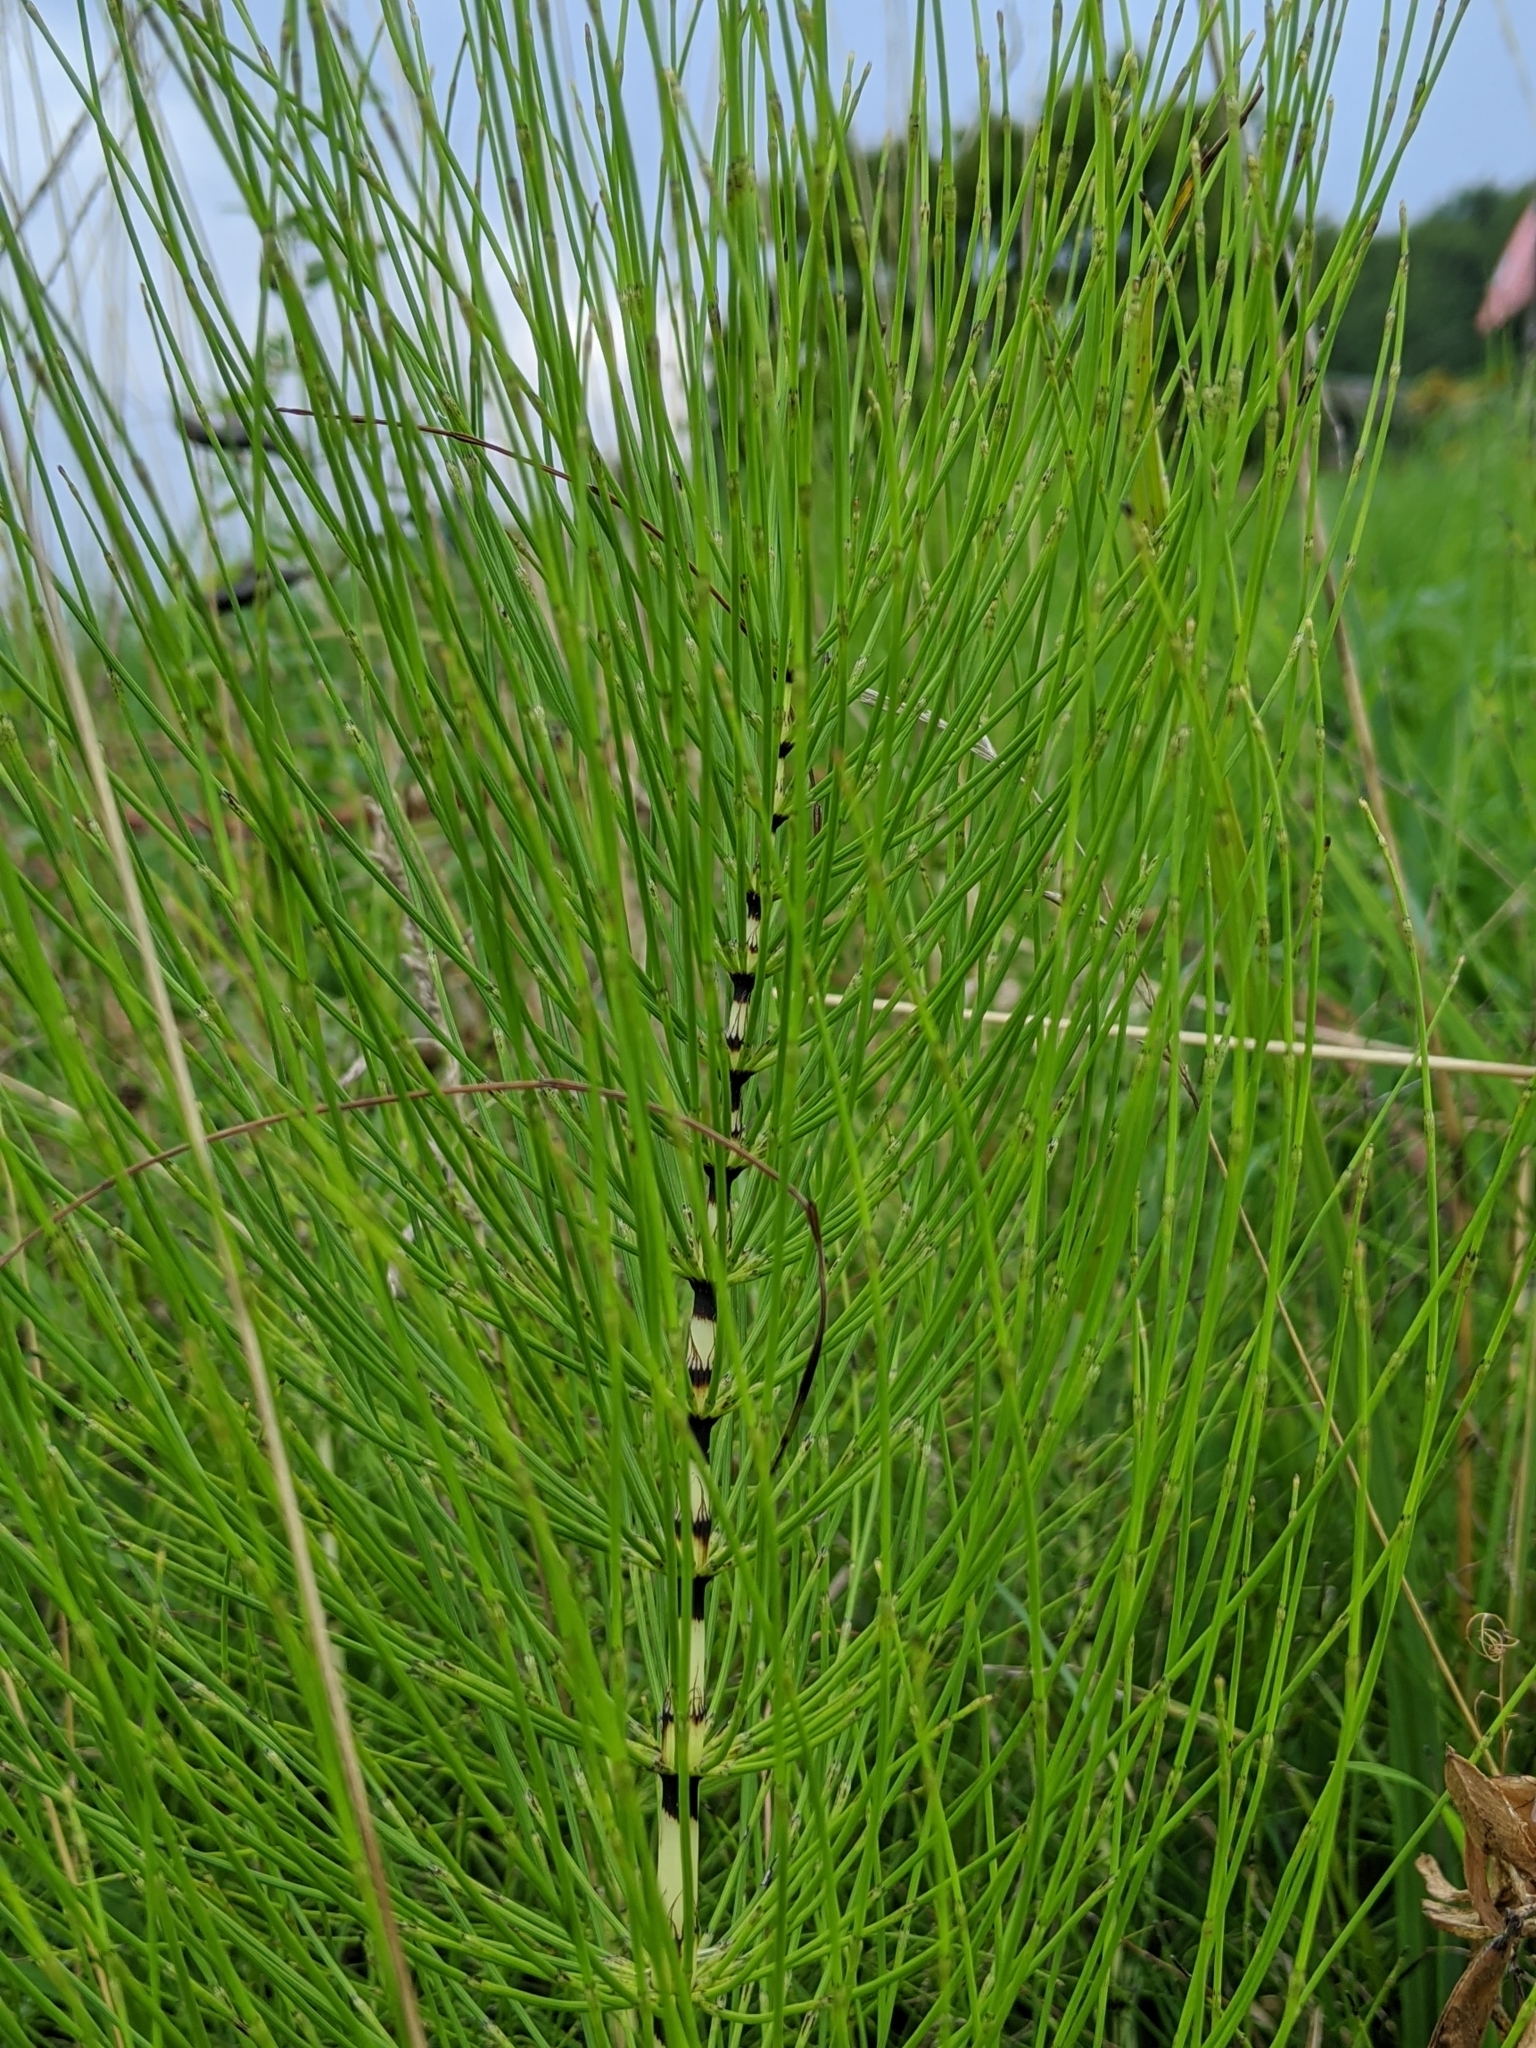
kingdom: Plantae
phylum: Tracheophyta
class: Polypodiopsida
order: Equisetales
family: Equisetaceae
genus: Equisetum
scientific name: Equisetum telmateia
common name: Great horsetail
